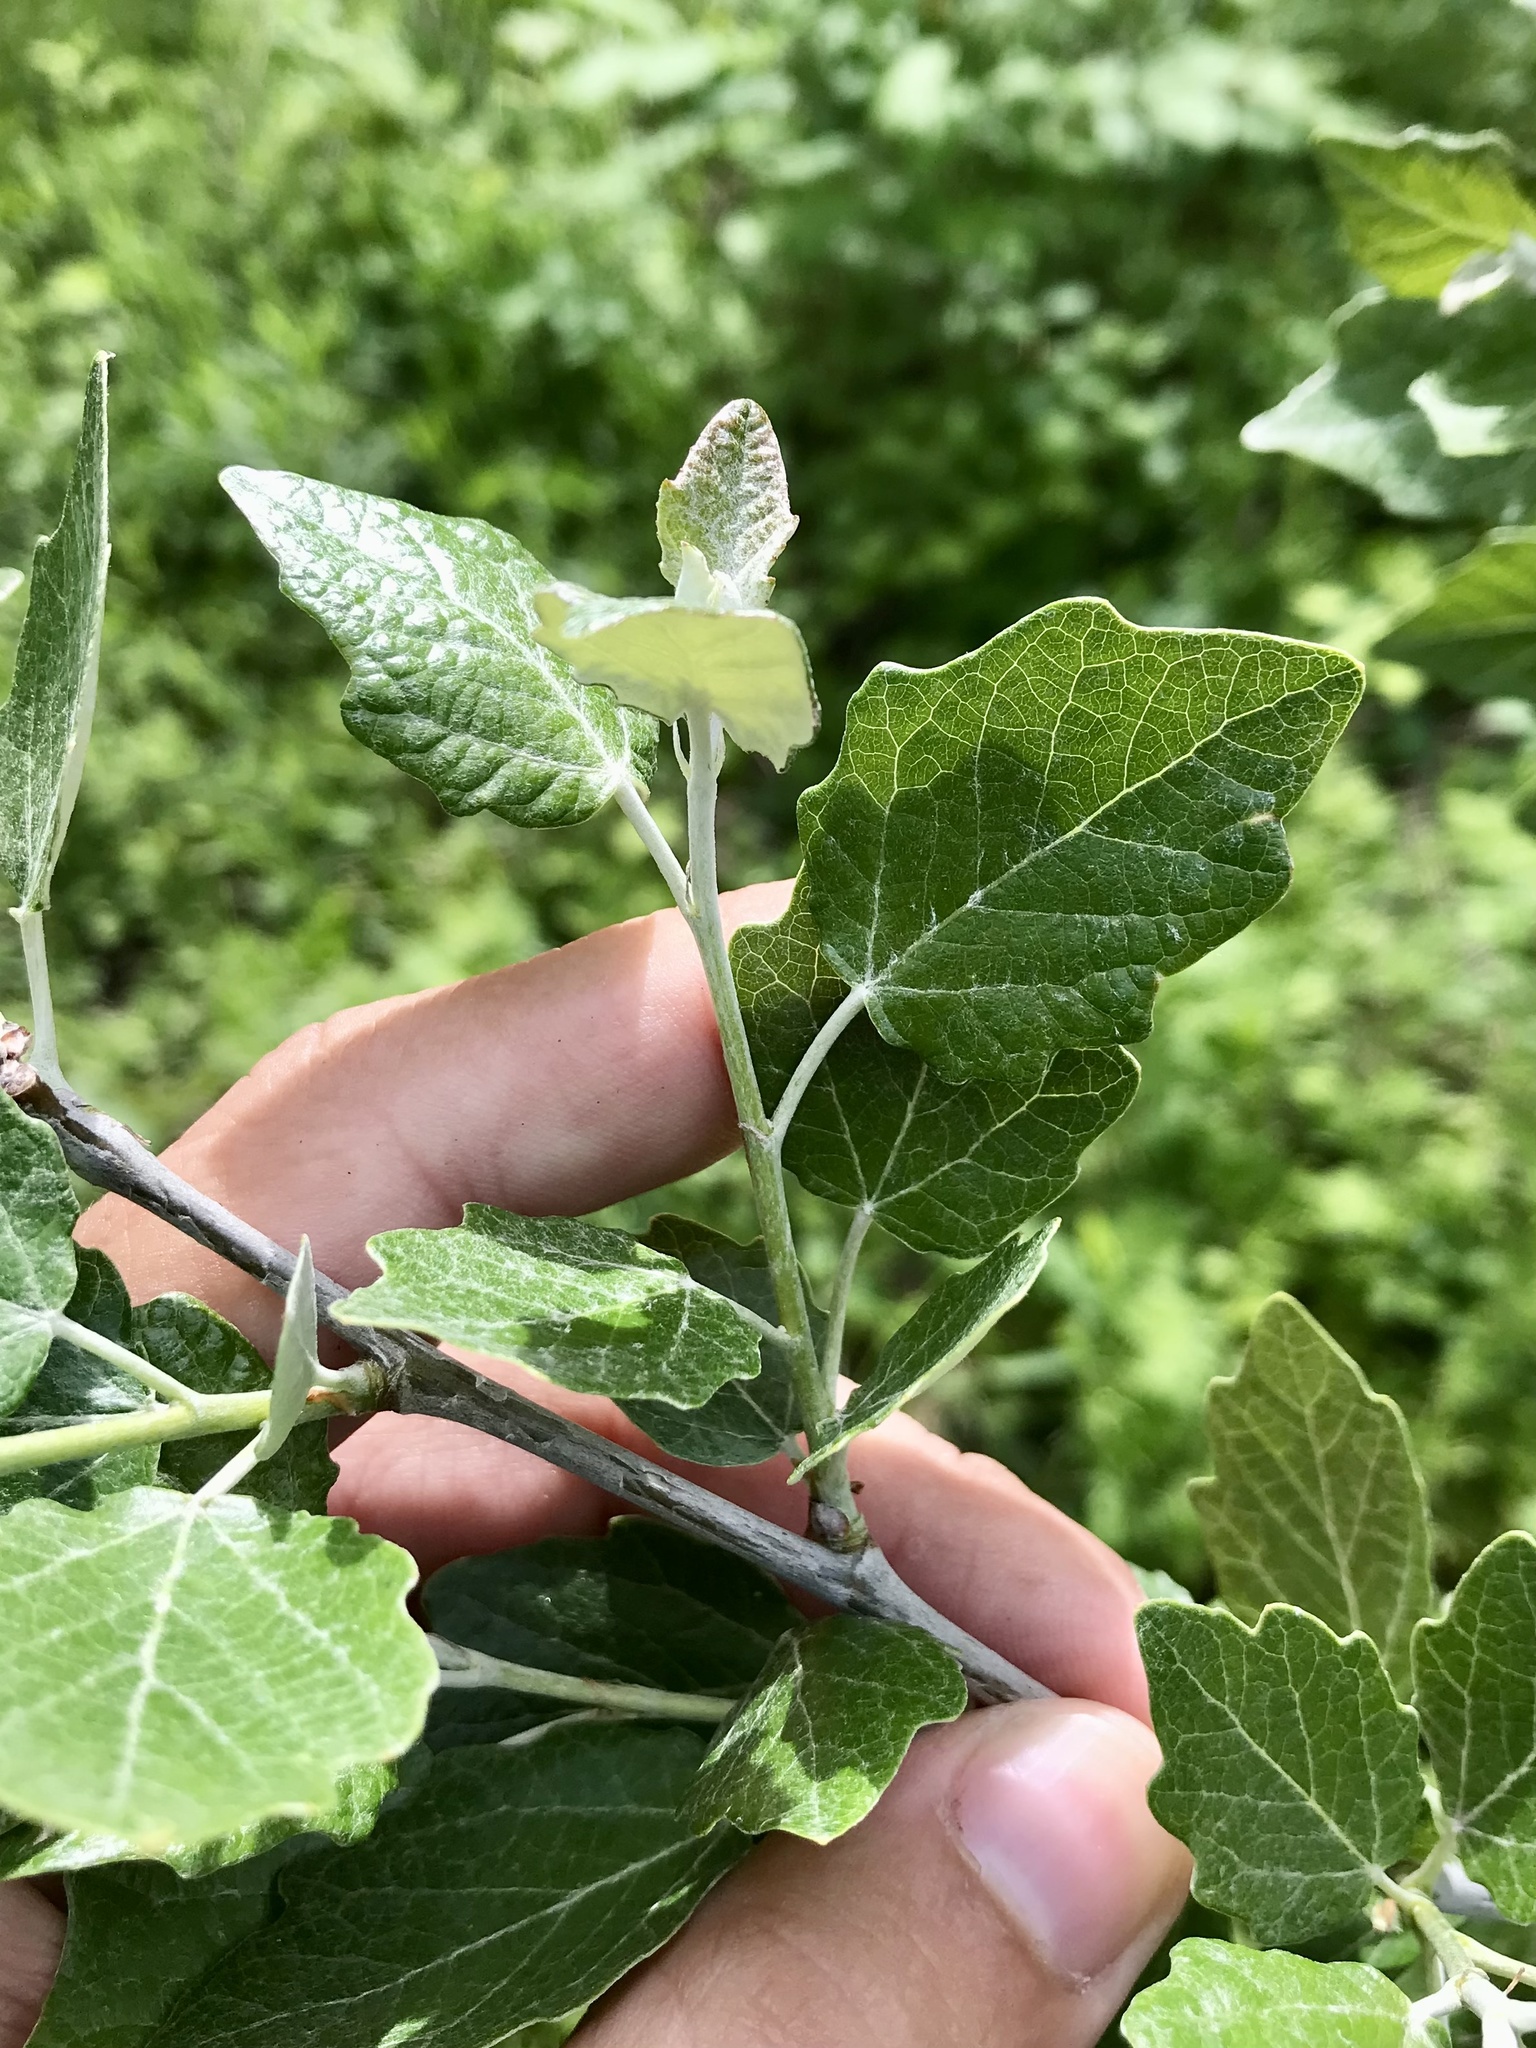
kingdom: Plantae
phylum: Tracheophyta
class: Magnoliopsida
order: Malpighiales
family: Salicaceae
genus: Populus
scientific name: Populus alba
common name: White poplar
